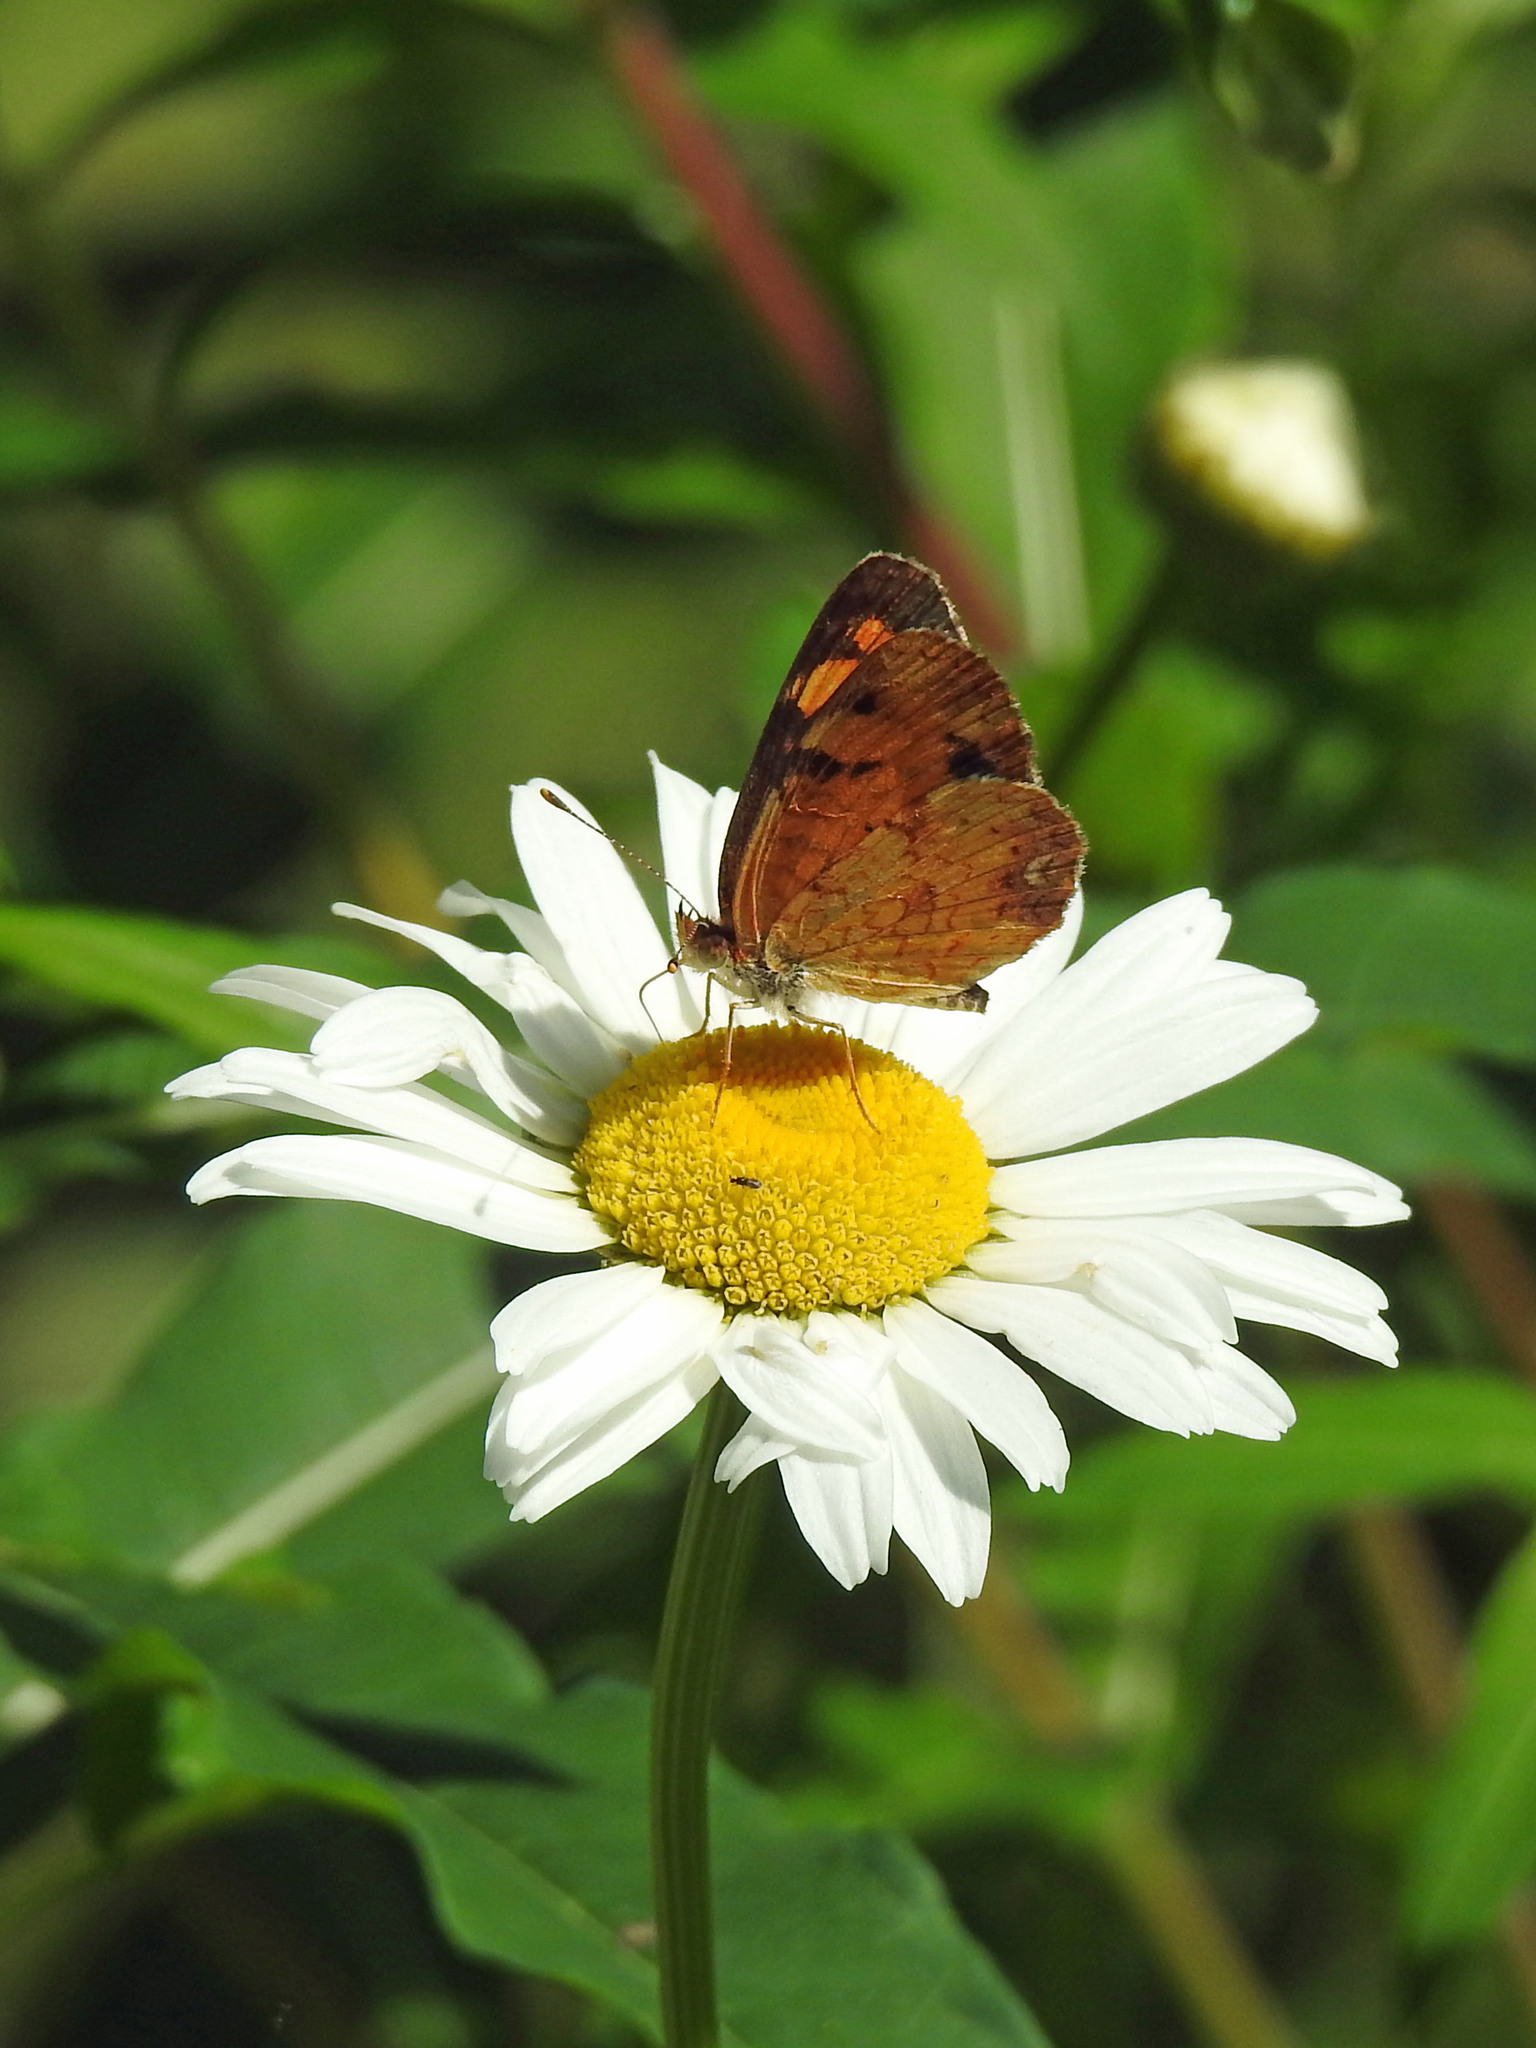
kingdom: Animalia
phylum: Arthropoda
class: Insecta
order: Lepidoptera
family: Nymphalidae
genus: Phyciodes
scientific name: Phyciodes tharos
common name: Pearl crescent
